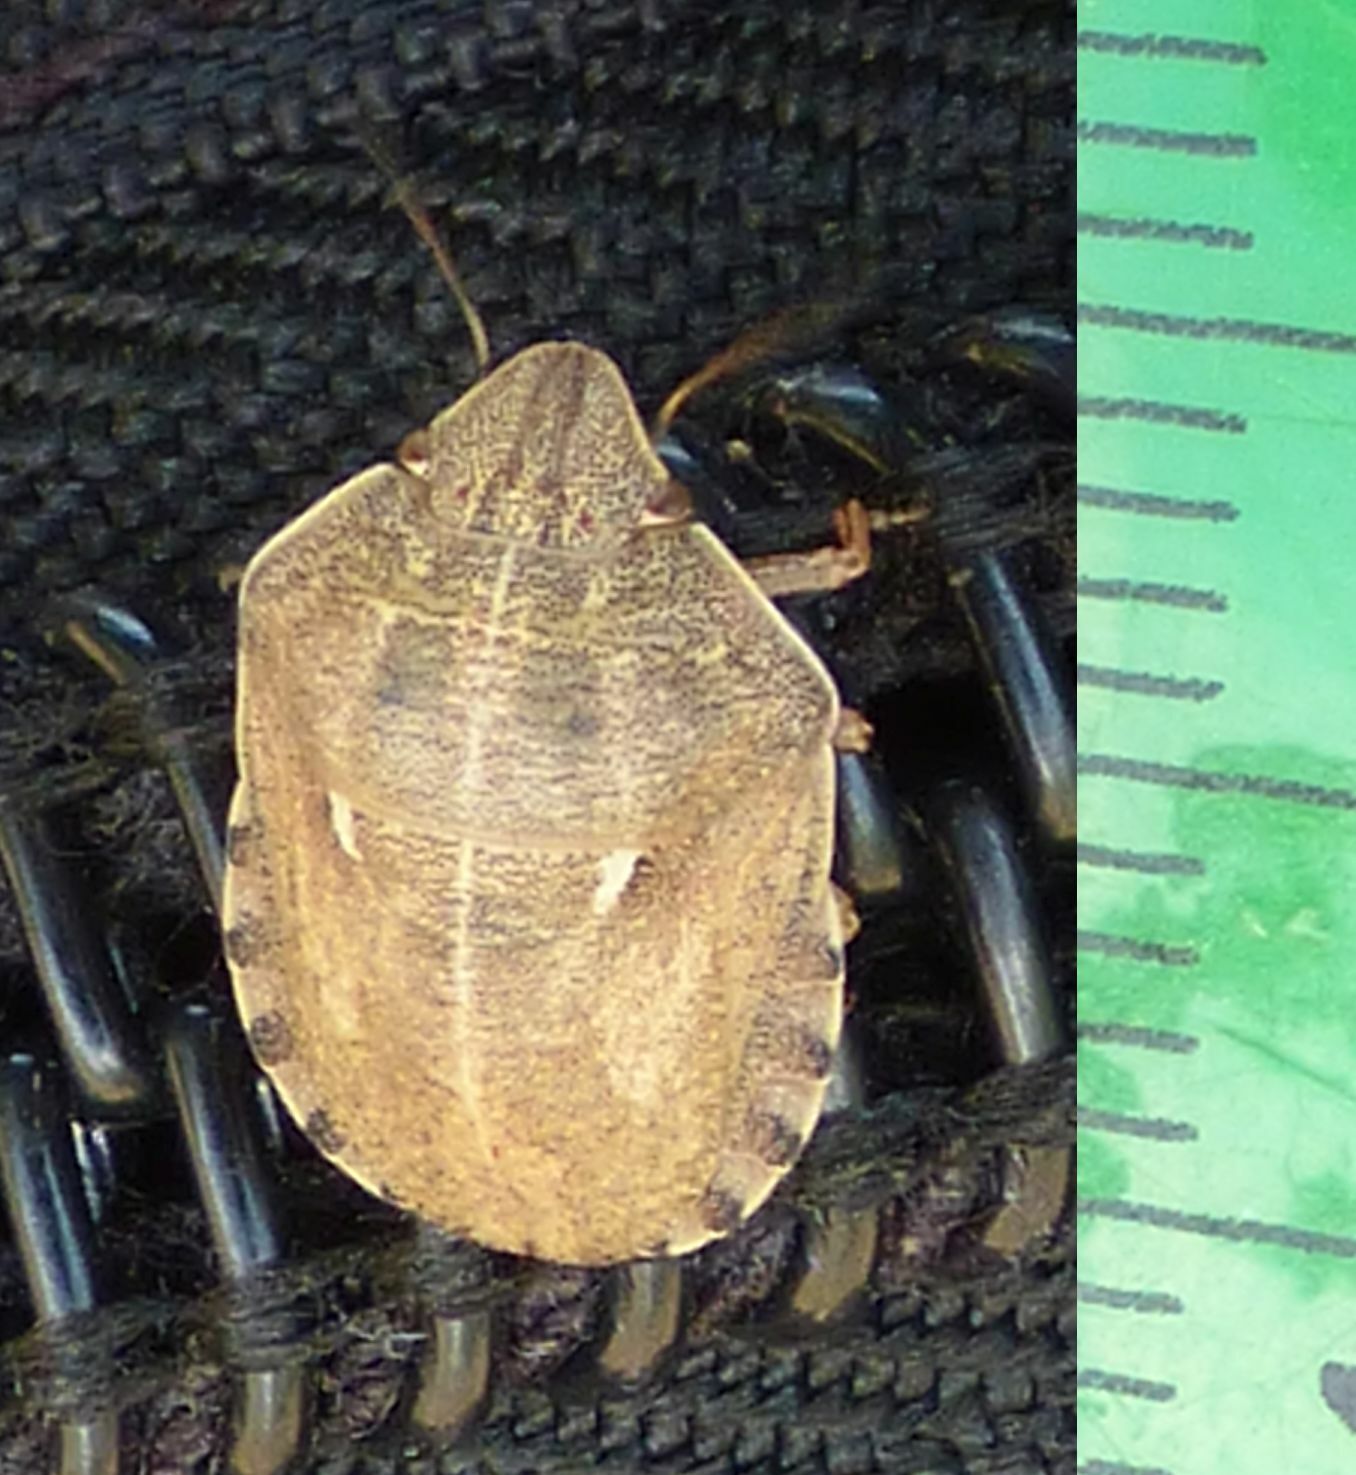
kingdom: Animalia
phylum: Arthropoda
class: Insecta
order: Hemiptera
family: Scutelleridae
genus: Eurygaster
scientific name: Eurygaster integriceps
